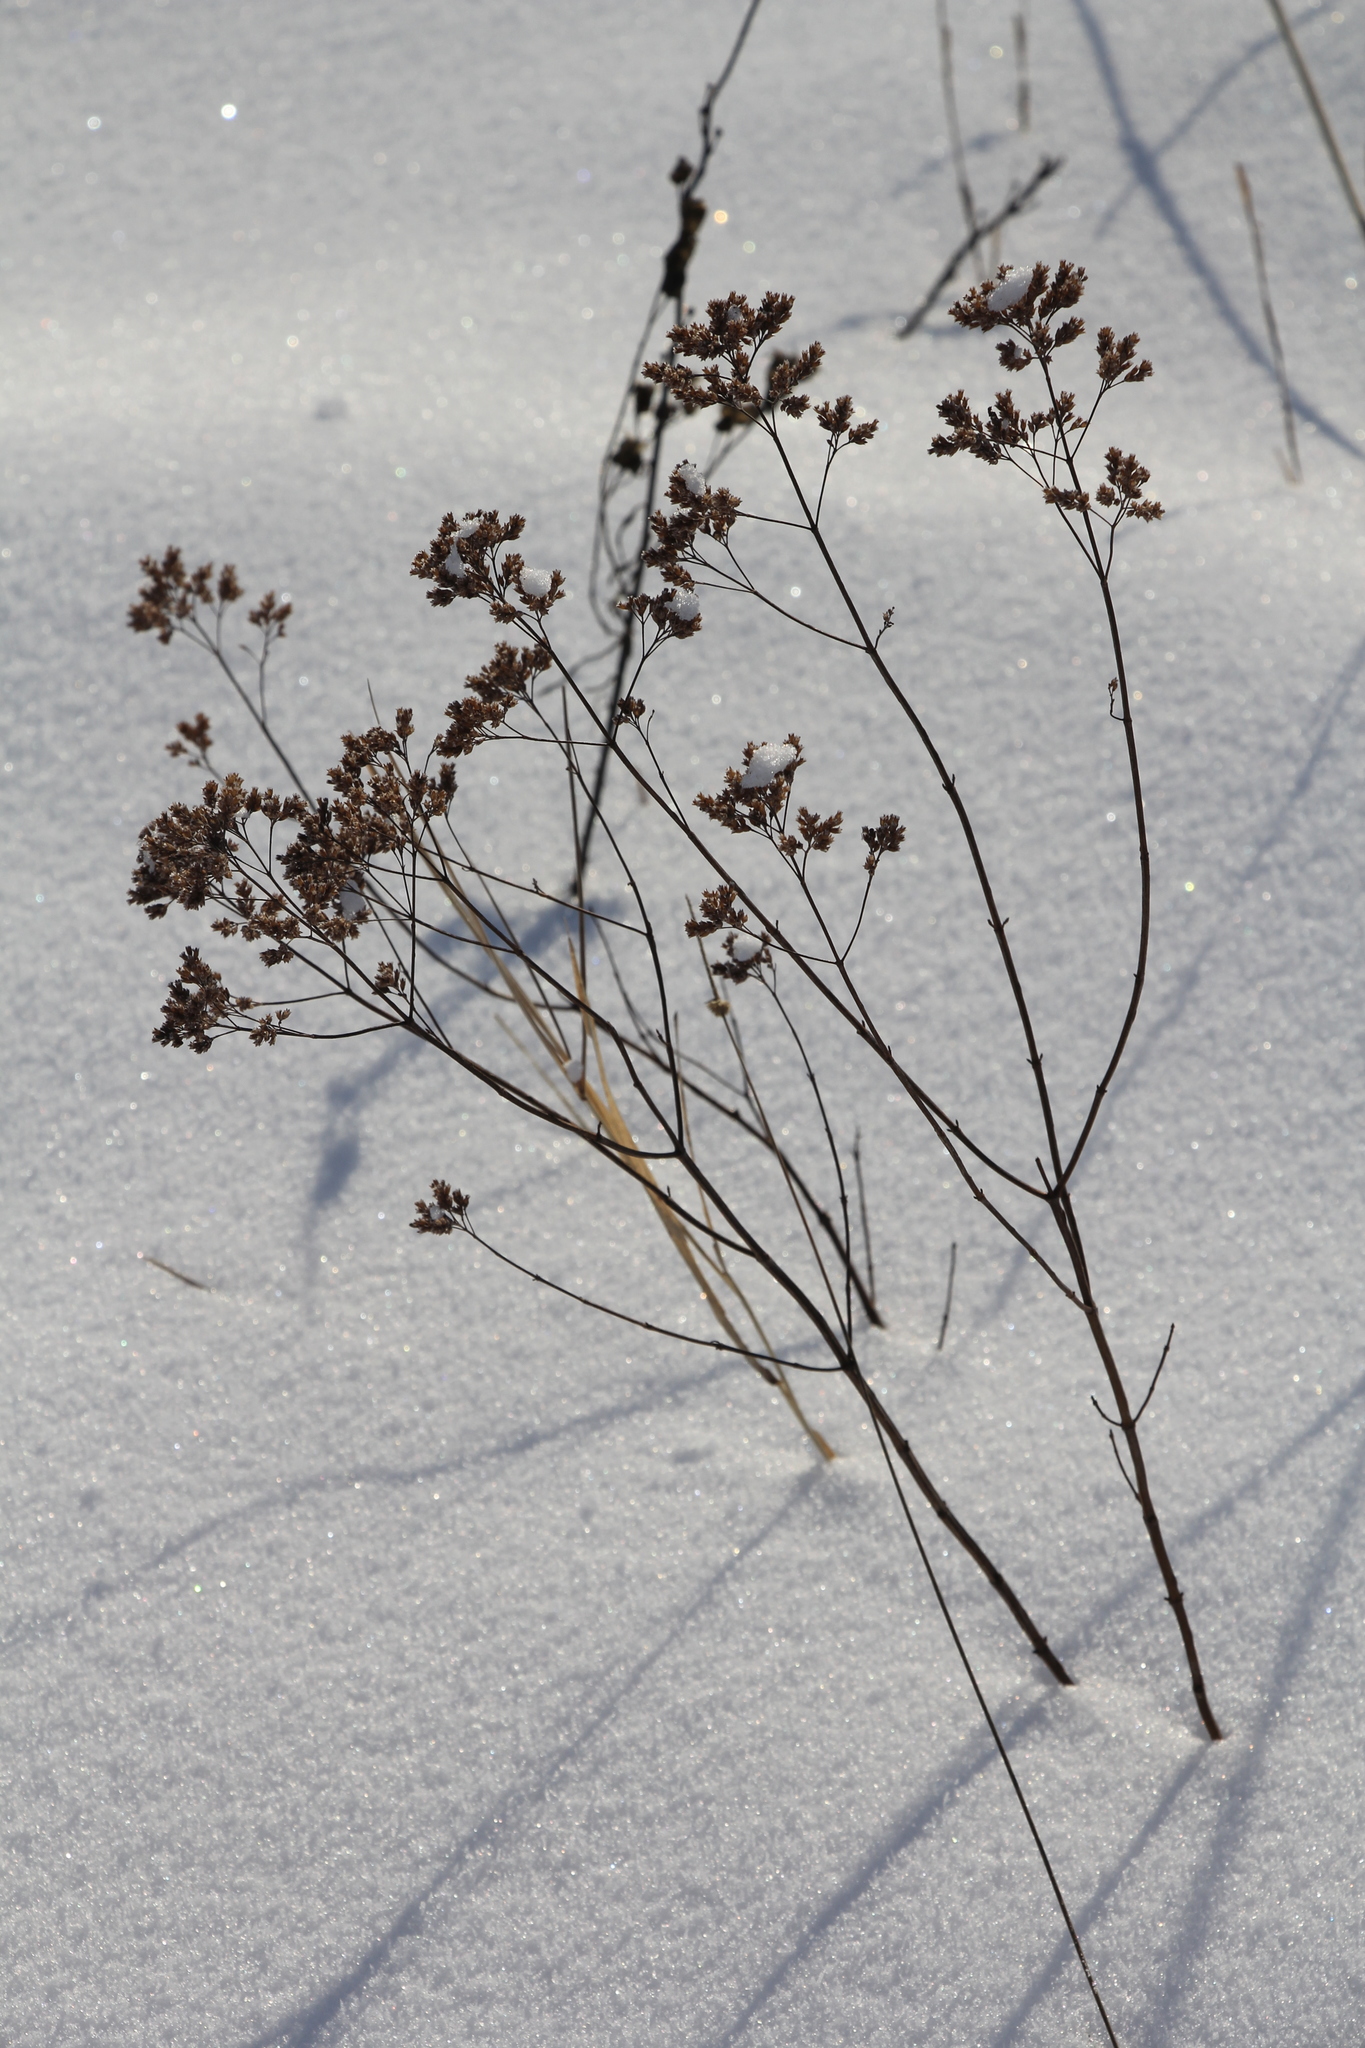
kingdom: Plantae
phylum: Tracheophyta
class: Magnoliopsida
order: Lamiales
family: Lamiaceae
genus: Origanum
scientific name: Origanum vulgare
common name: Wild marjoram
